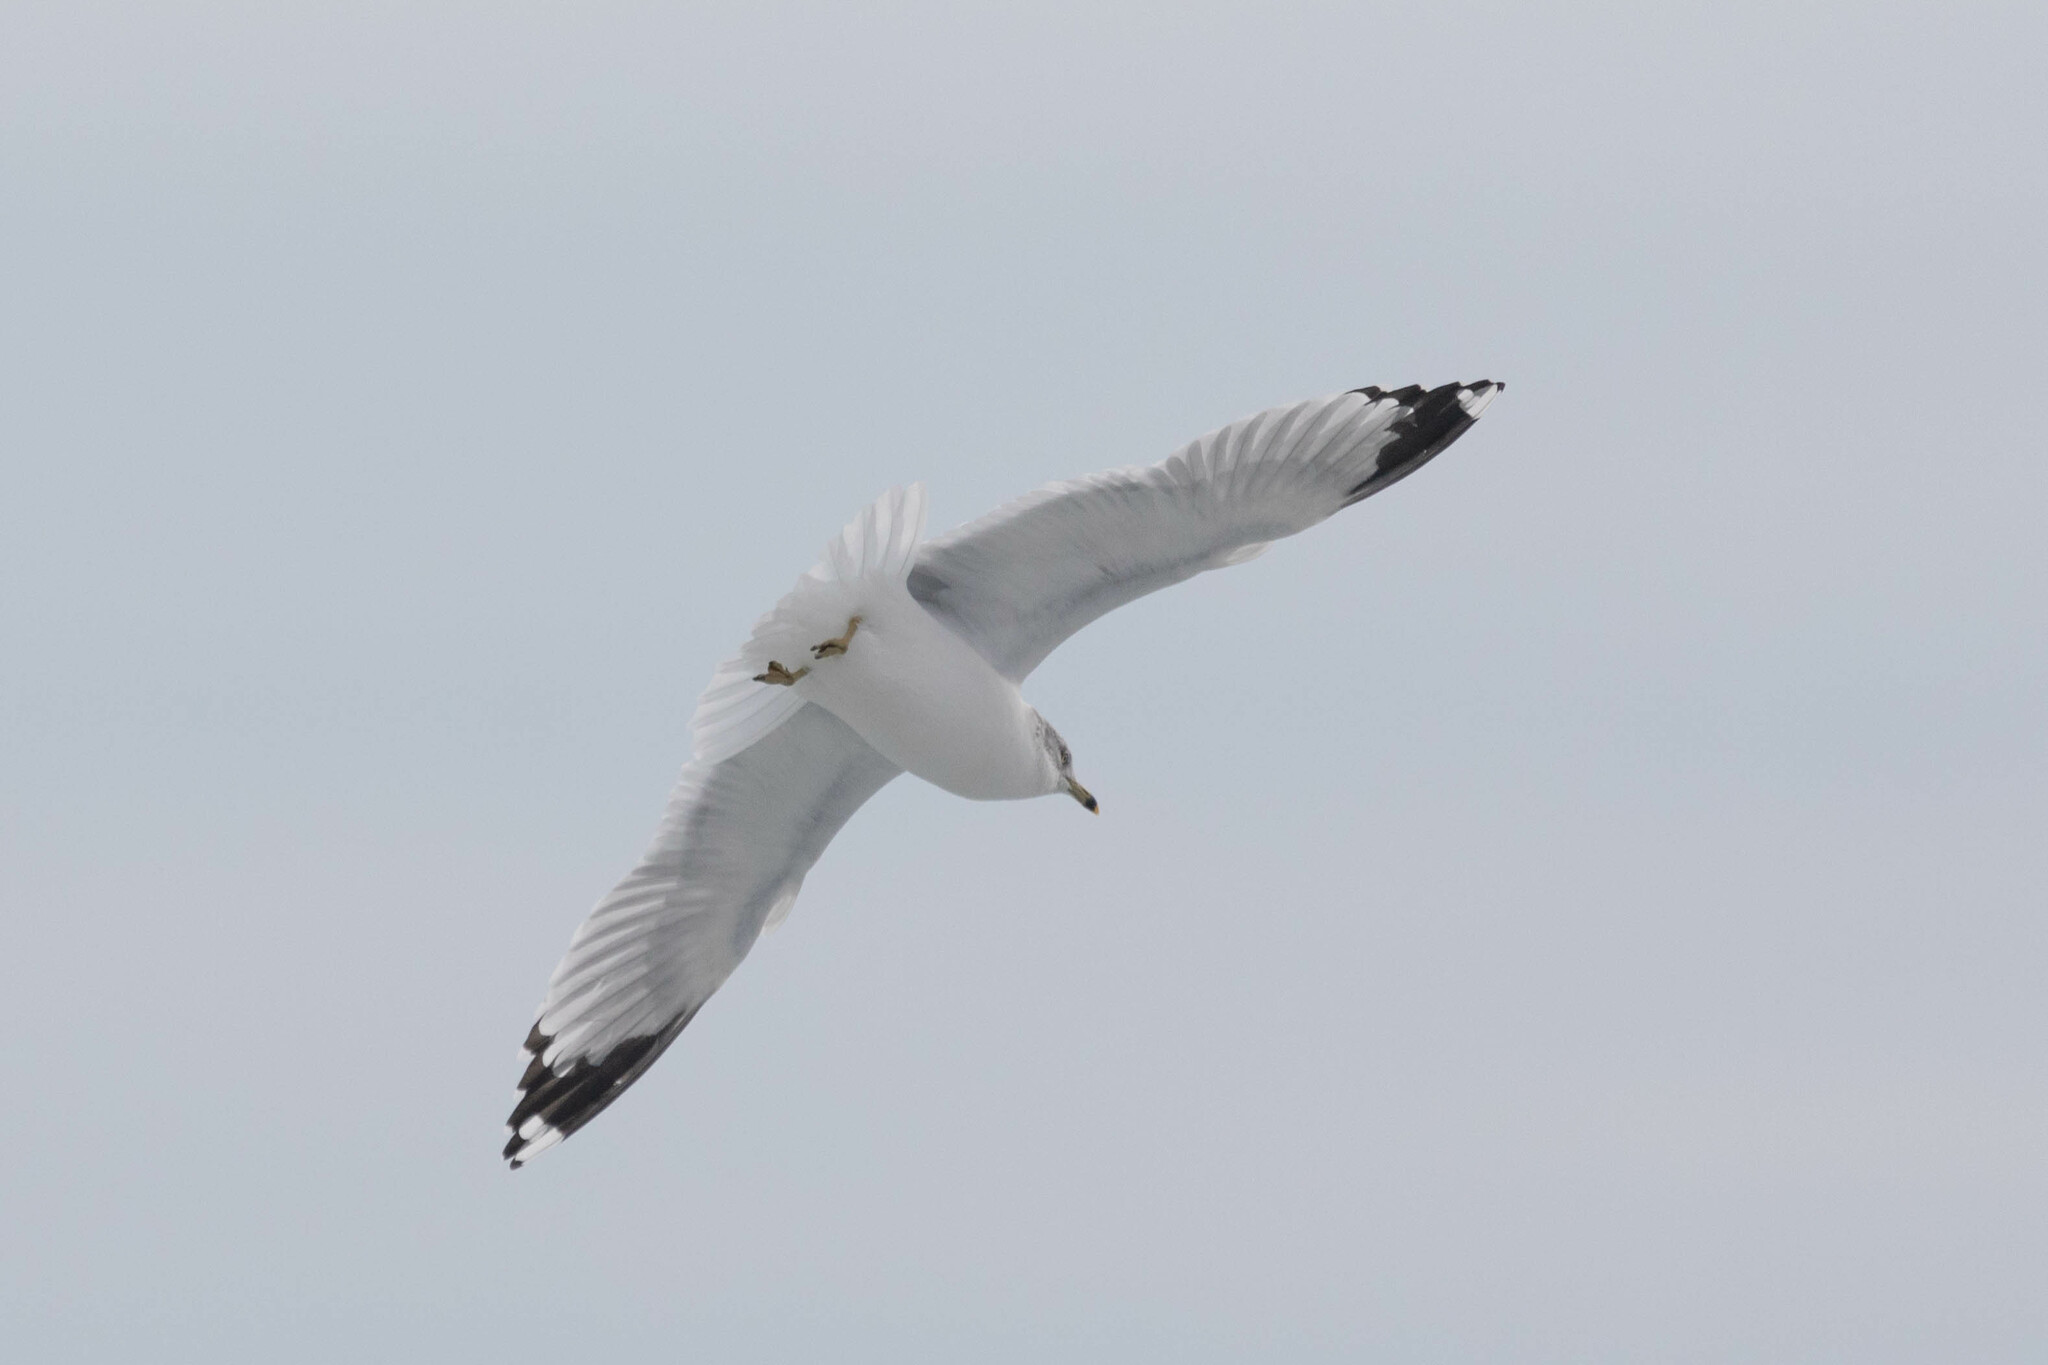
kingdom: Animalia
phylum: Chordata
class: Aves
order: Charadriiformes
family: Laridae
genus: Larus
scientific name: Larus delawarensis
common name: Ring-billed gull
